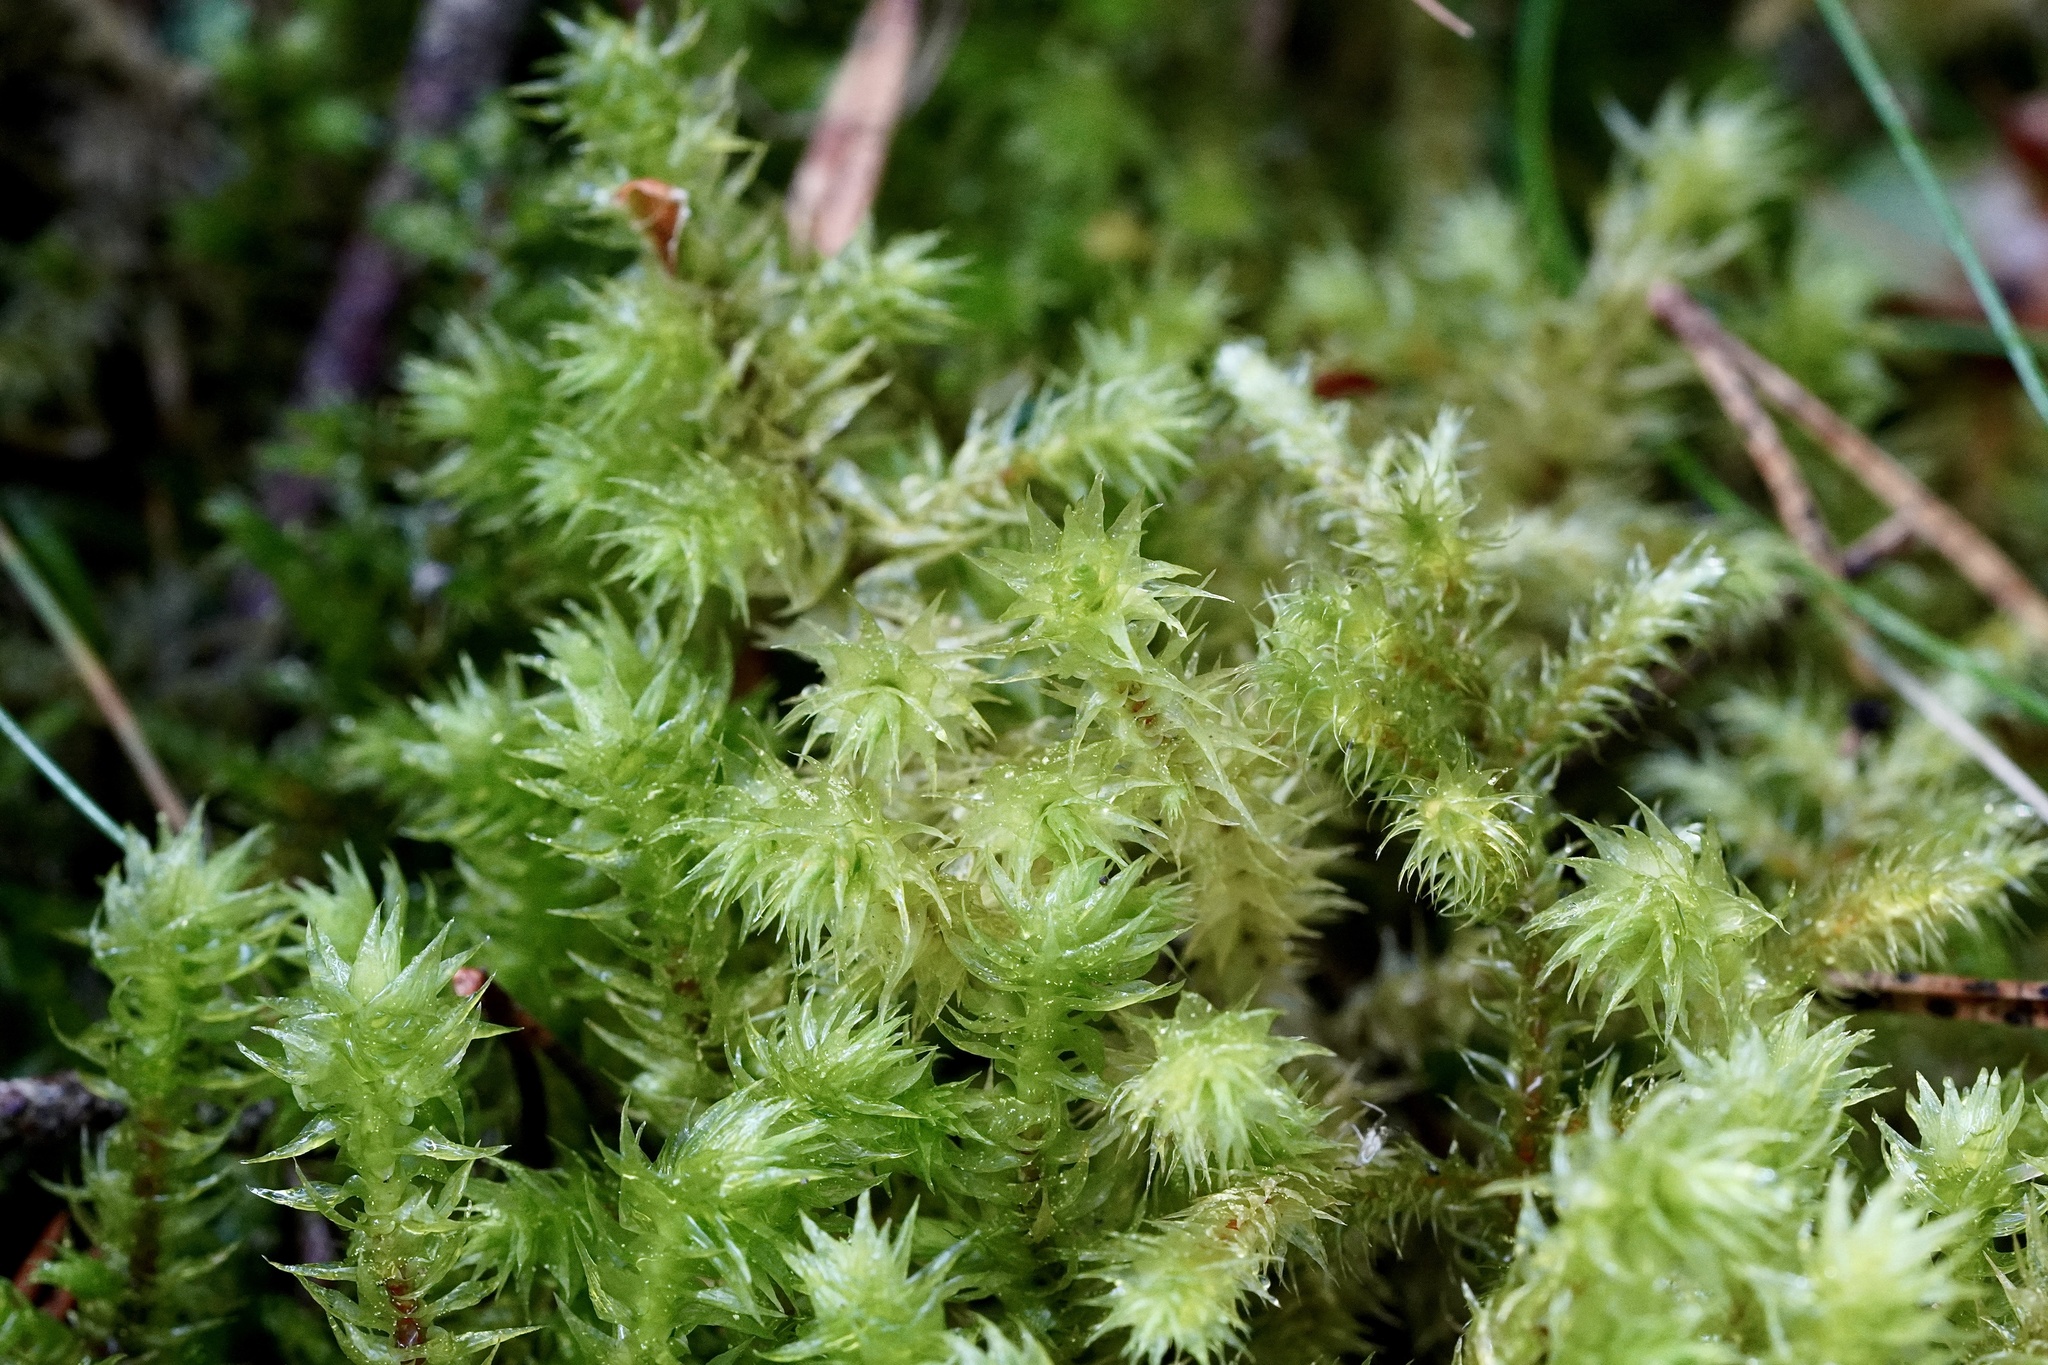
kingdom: Plantae
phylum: Bryophyta
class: Bryopsida
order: Hypnales
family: Hylocomiaceae
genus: Hylocomiadelphus
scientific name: Hylocomiadelphus triquetrus
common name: Rough goose neck moss
